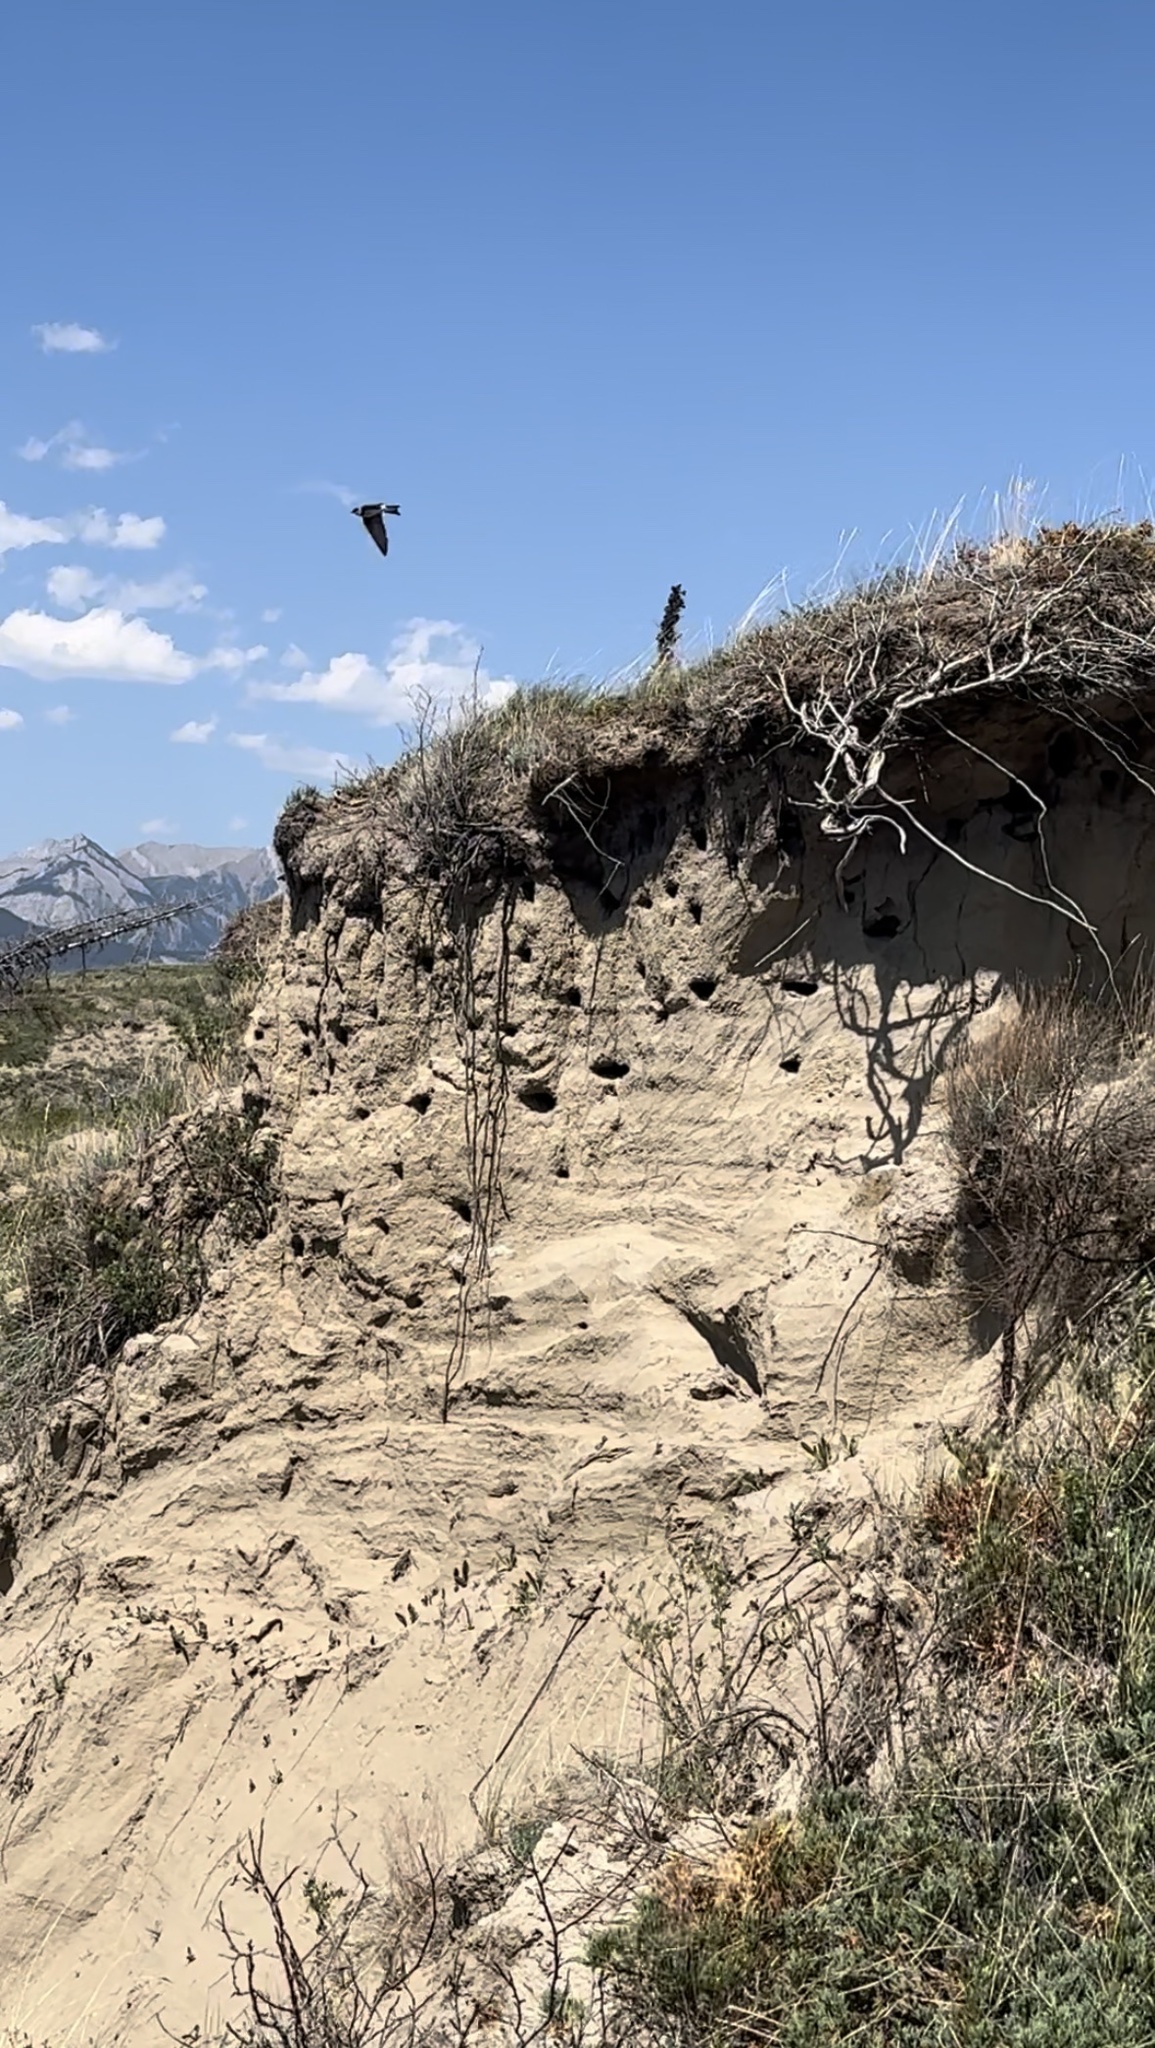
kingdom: Animalia
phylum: Chordata
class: Aves
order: Passeriformes
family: Hirundinidae
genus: Riparia
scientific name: Riparia riparia
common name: Sand martin
